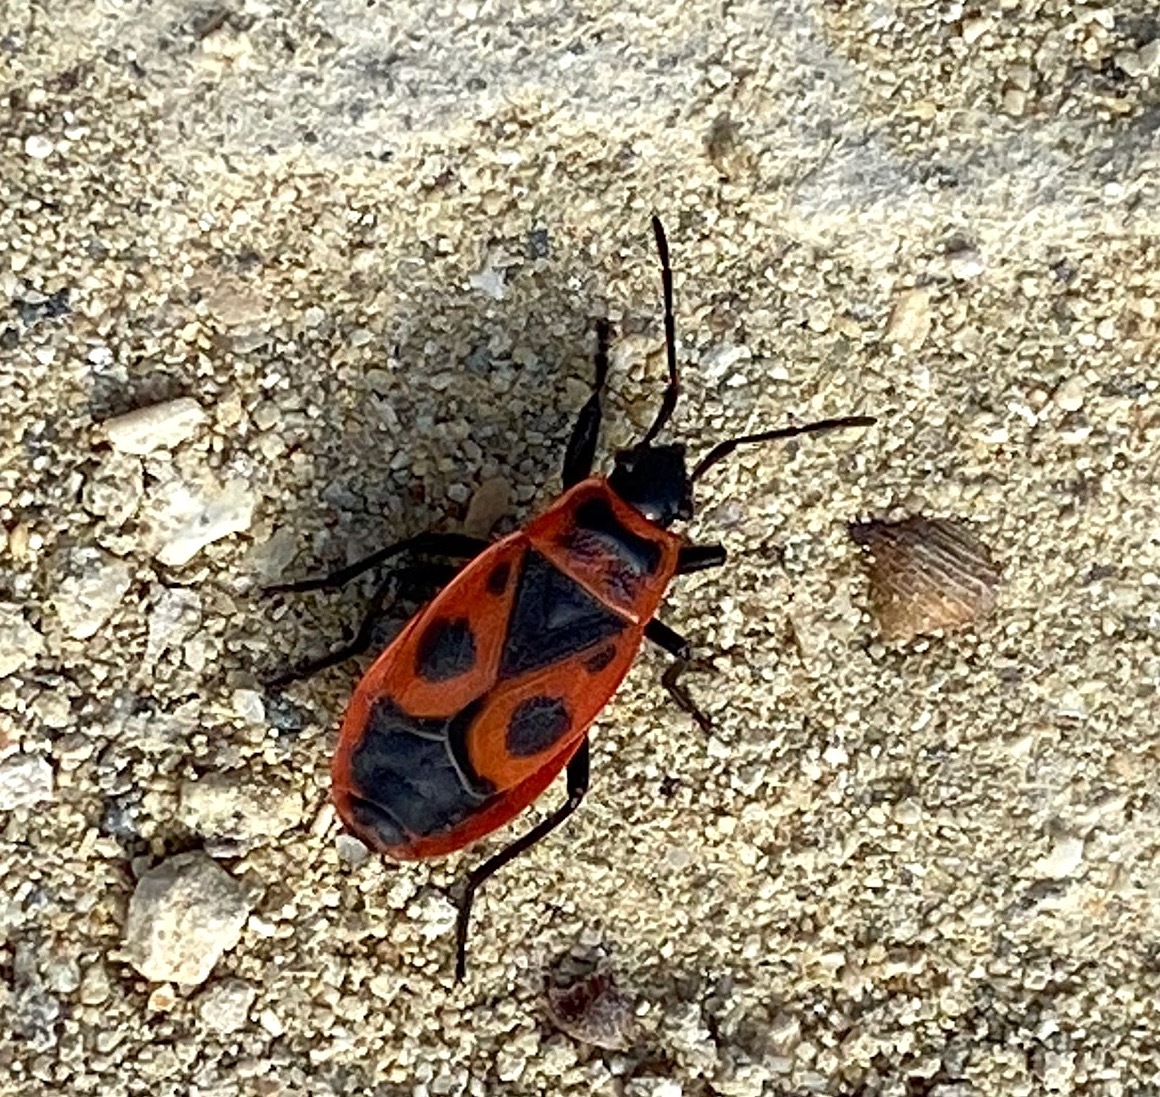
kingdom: Animalia
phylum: Arthropoda
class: Insecta
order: Hemiptera
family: Pyrrhocoridae
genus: Pyrrhocoris
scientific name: Pyrrhocoris apterus
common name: Firebug
